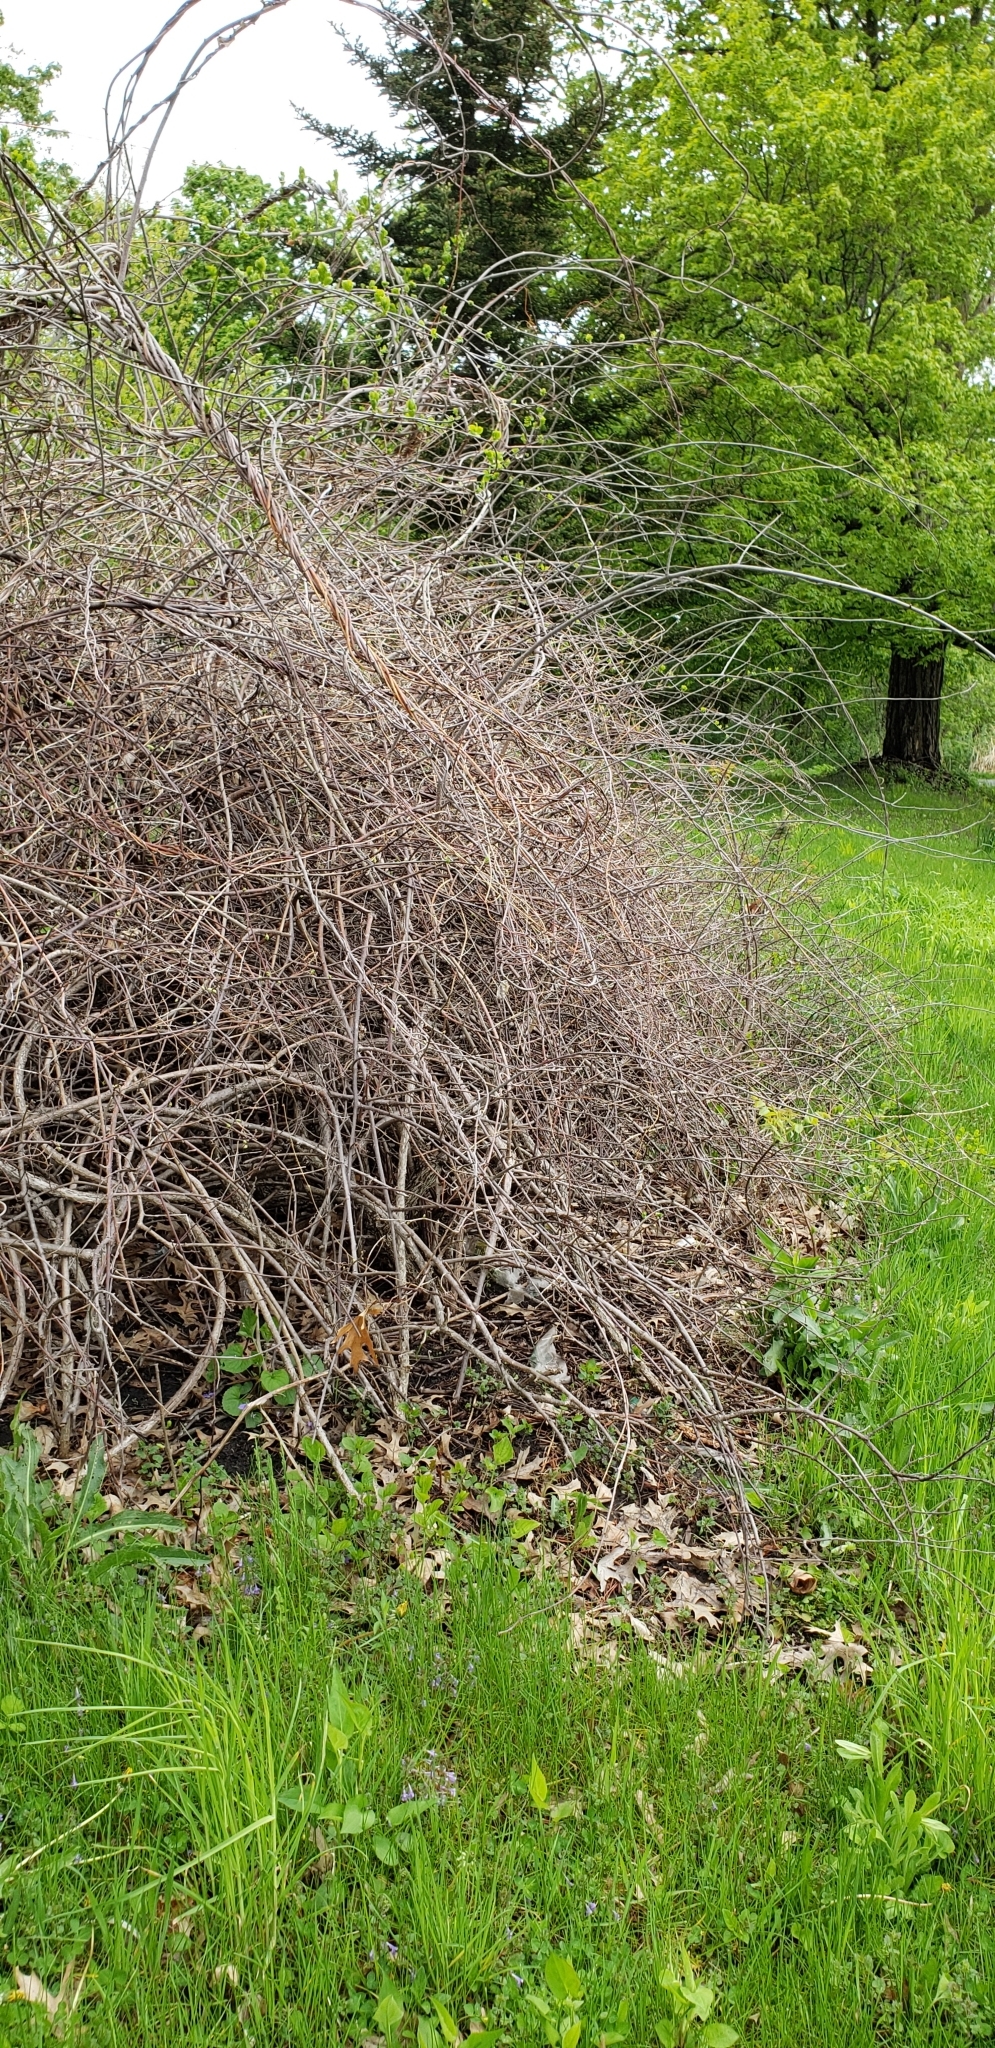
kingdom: Plantae
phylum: Tracheophyta
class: Magnoliopsida
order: Celastrales
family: Celastraceae
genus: Celastrus
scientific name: Celastrus orbiculatus
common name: Oriental bittersweet
